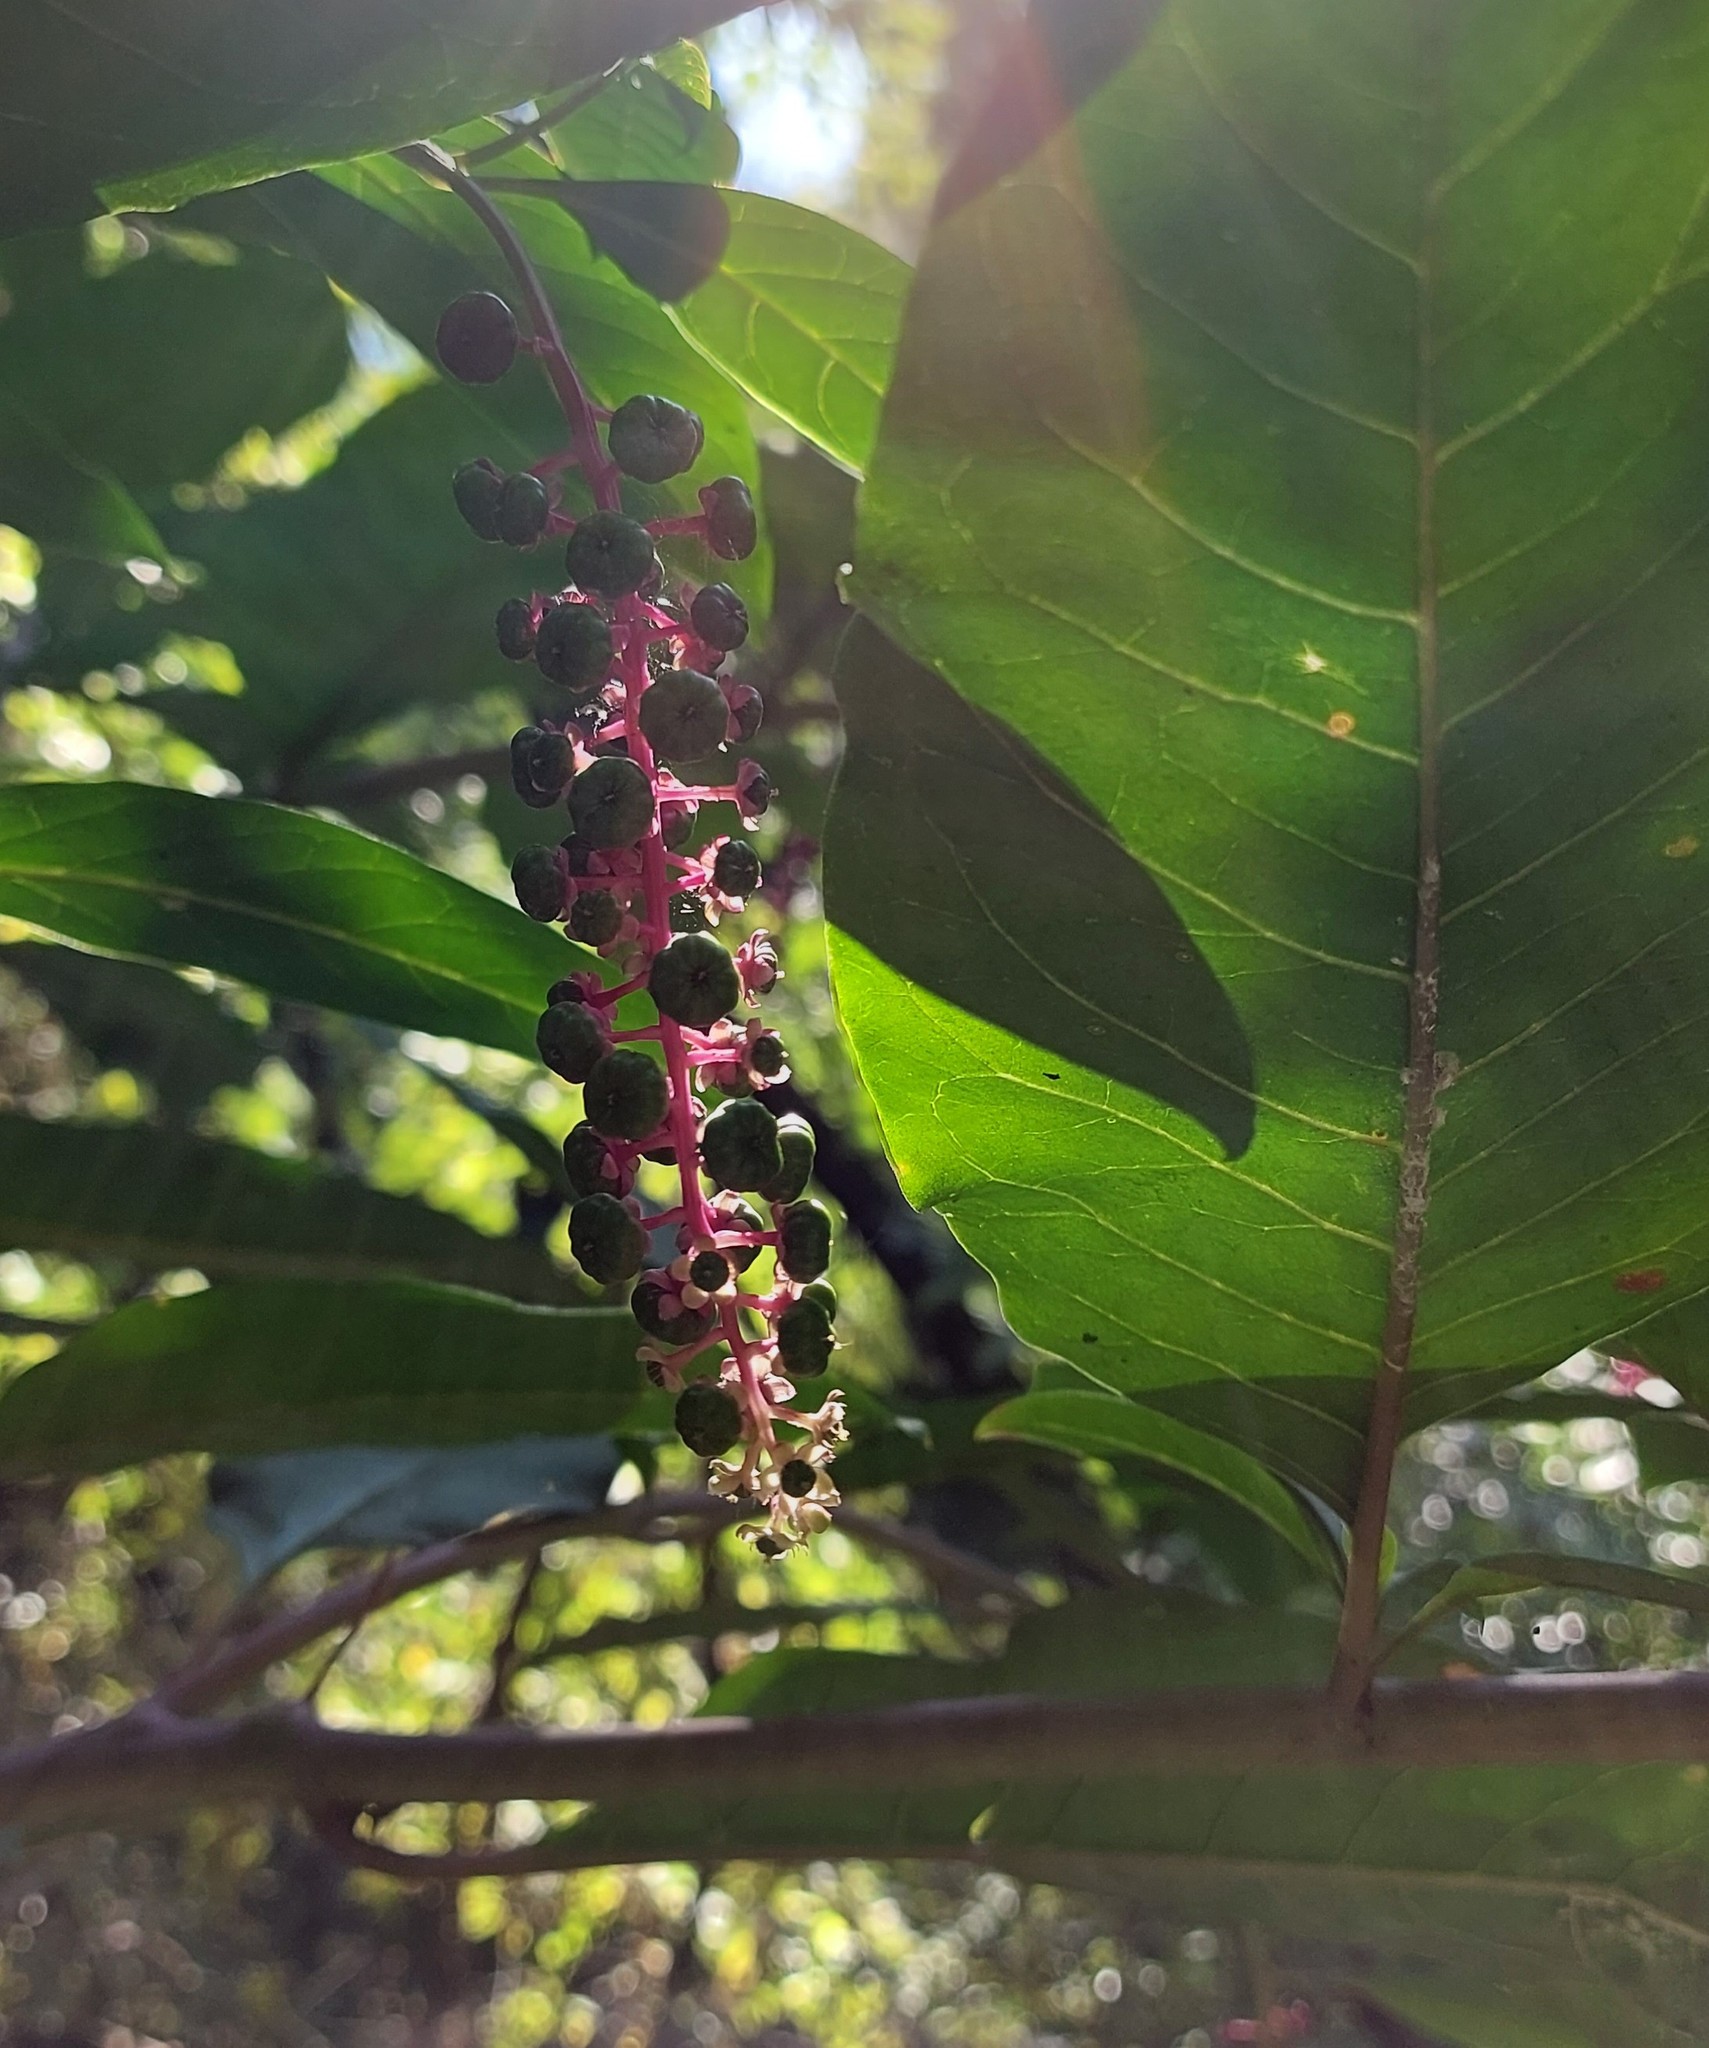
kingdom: Plantae
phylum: Tracheophyta
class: Magnoliopsida
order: Caryophyllales
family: Phytolaccaceae
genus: Phytolacca
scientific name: Phytolacca americana
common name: American pokeweed
